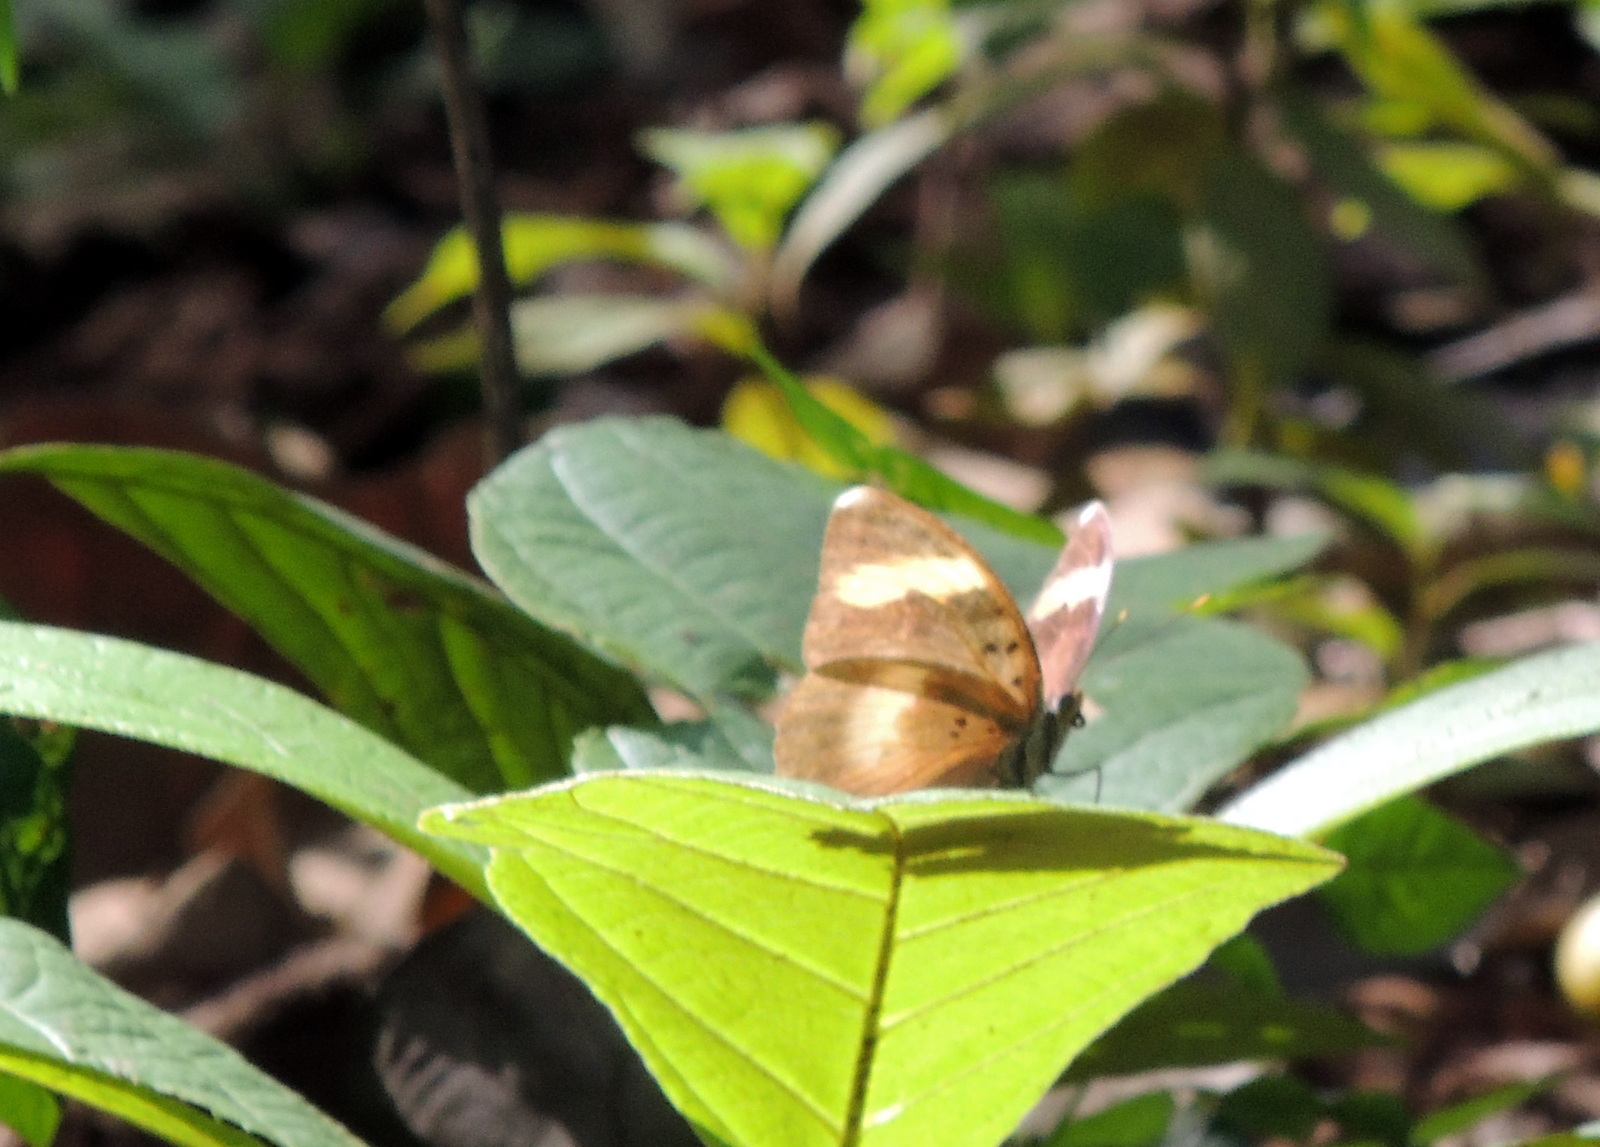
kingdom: Animalia
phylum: Arthropoda
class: Insecta
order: Lepidoptera
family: Nymphalidae
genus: Euphaedra
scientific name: Euphaedra medon
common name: Widespread forester
